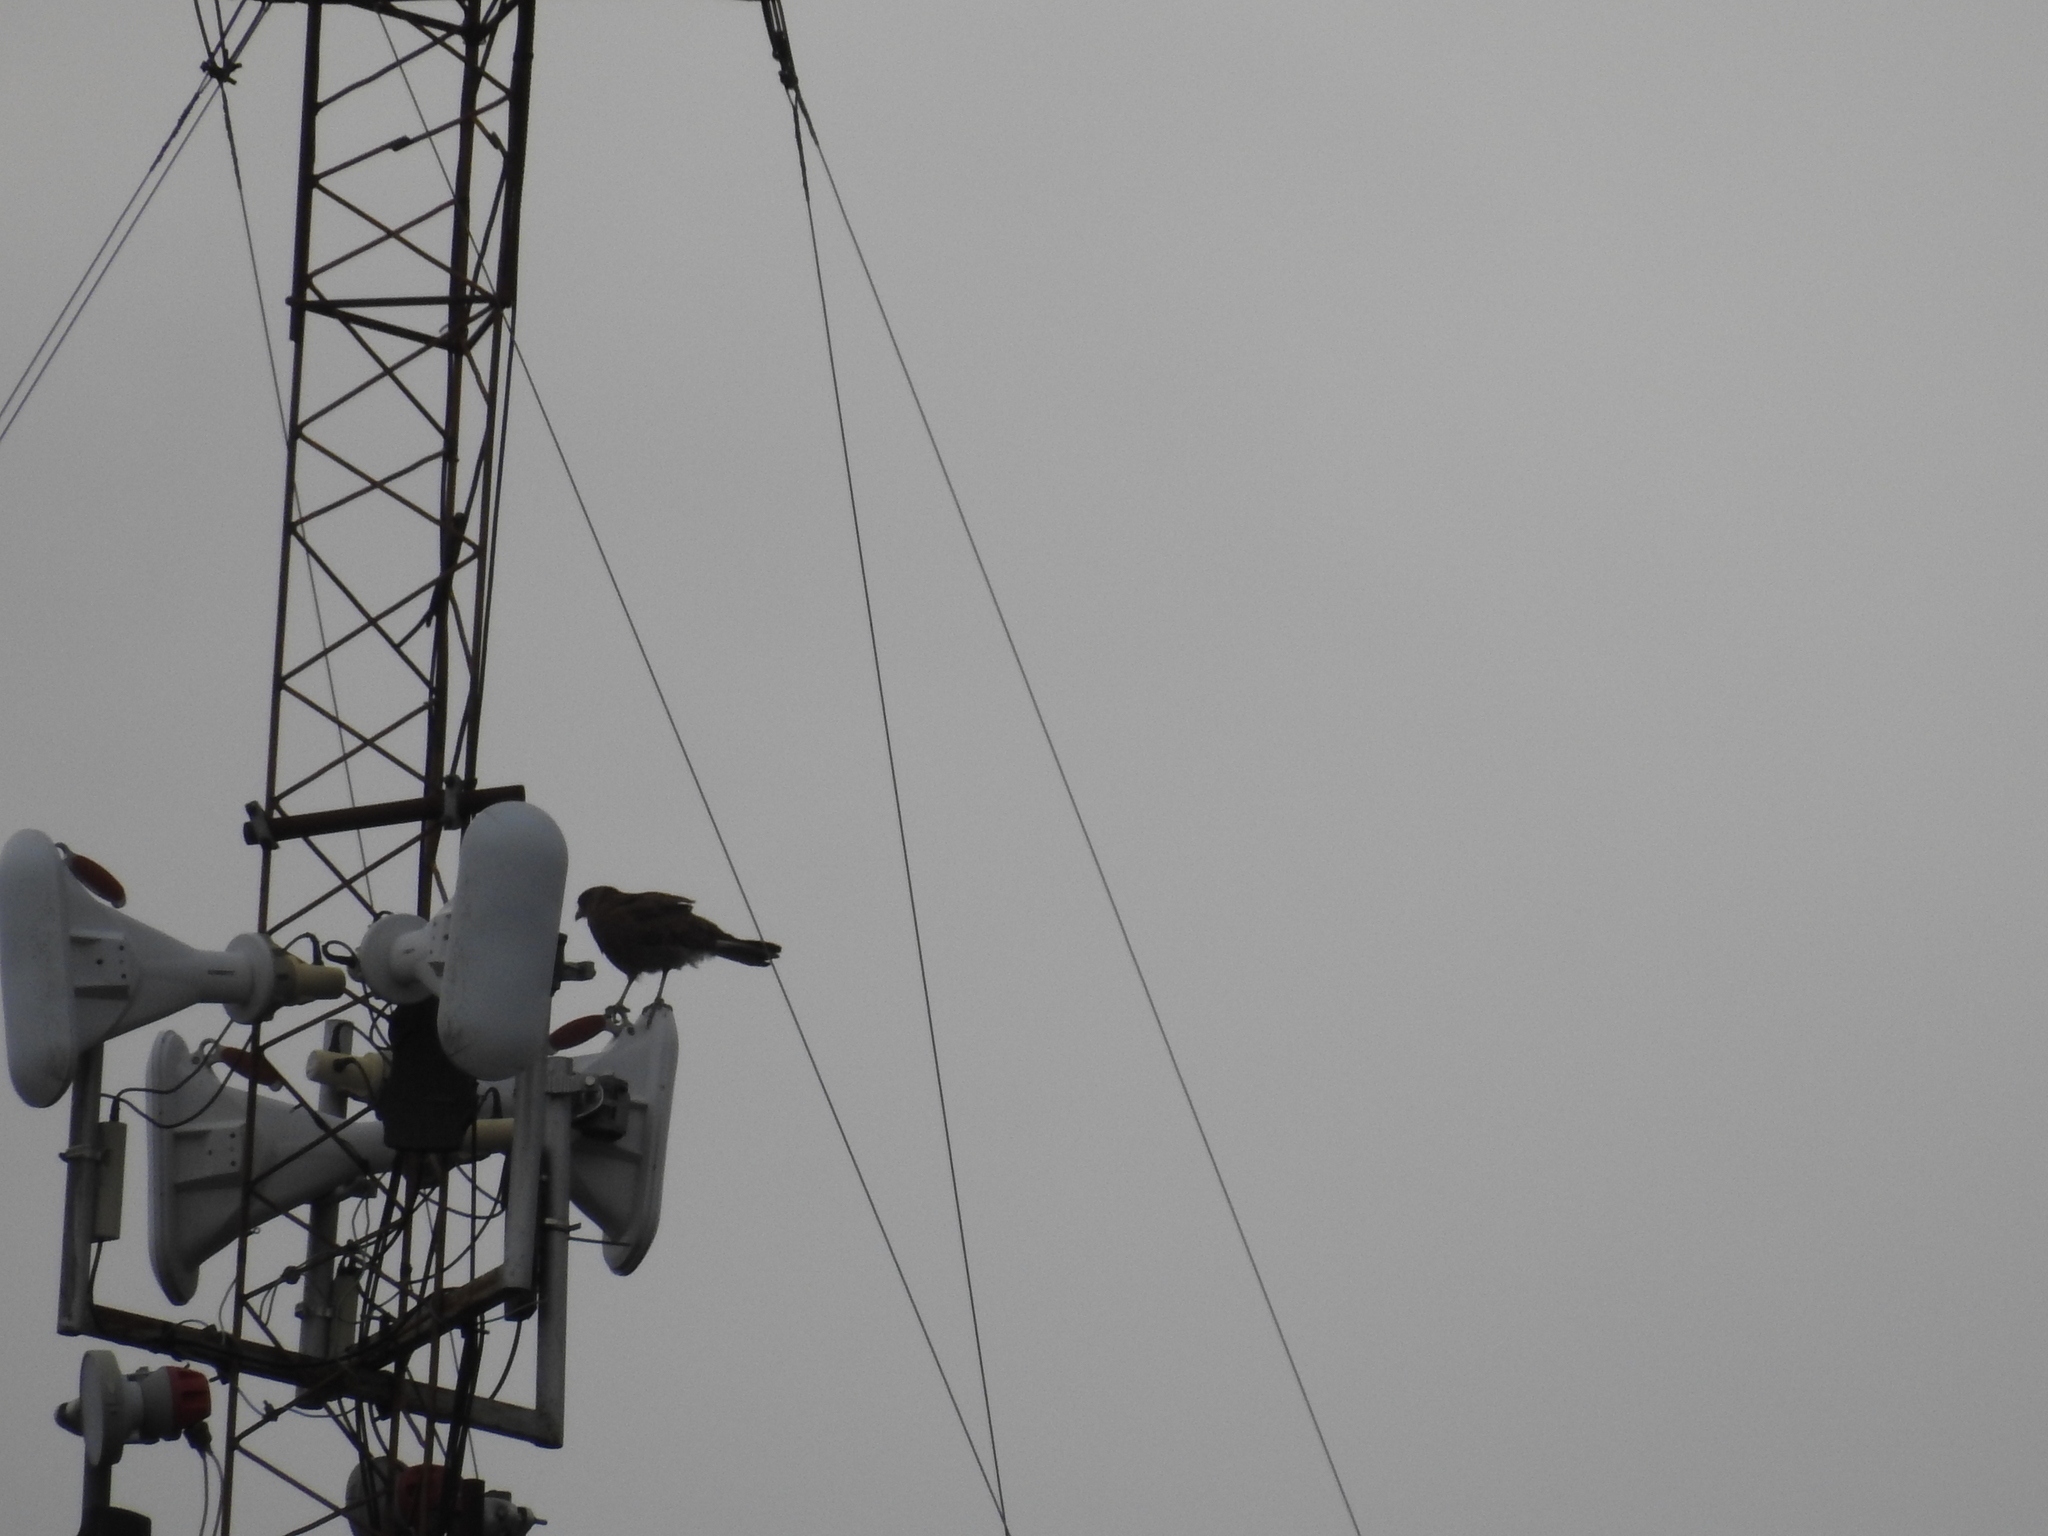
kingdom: Animalia
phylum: Chordata
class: Aves
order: Falconiformes
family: Falconidae
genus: Daptrius
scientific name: Daptrius
